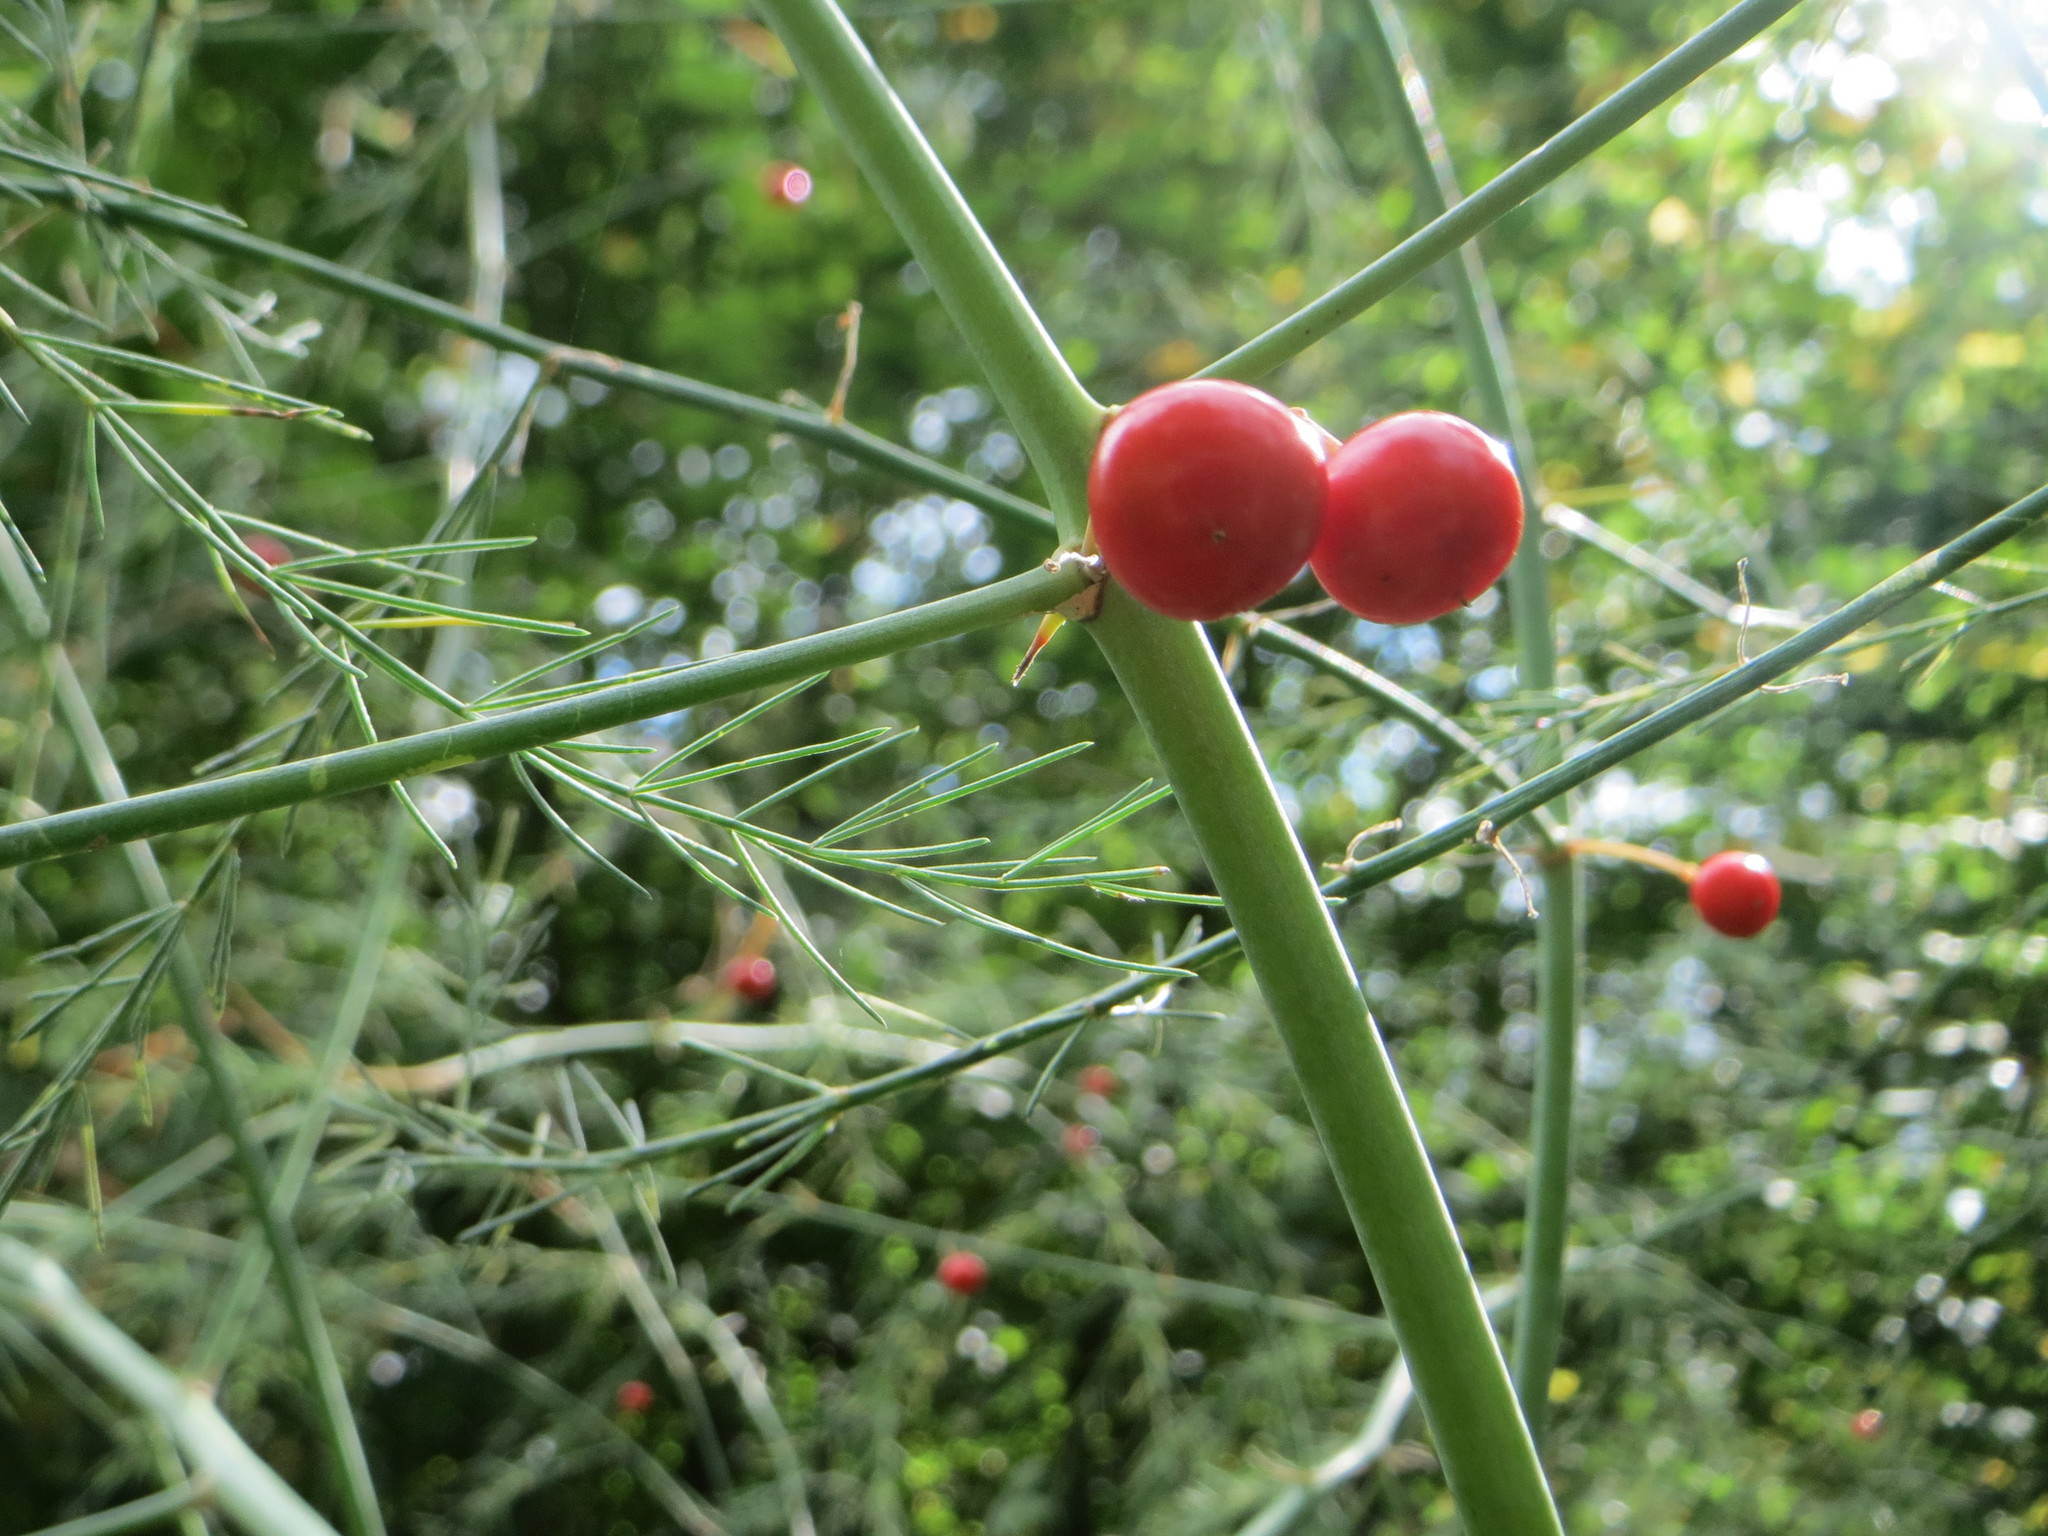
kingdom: Plantae
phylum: Tracheophyta
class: Liliopsida
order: Asparagales
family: Asparagaceae
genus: Asparagus
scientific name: Asparagus officinalis
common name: Garden asparagus
